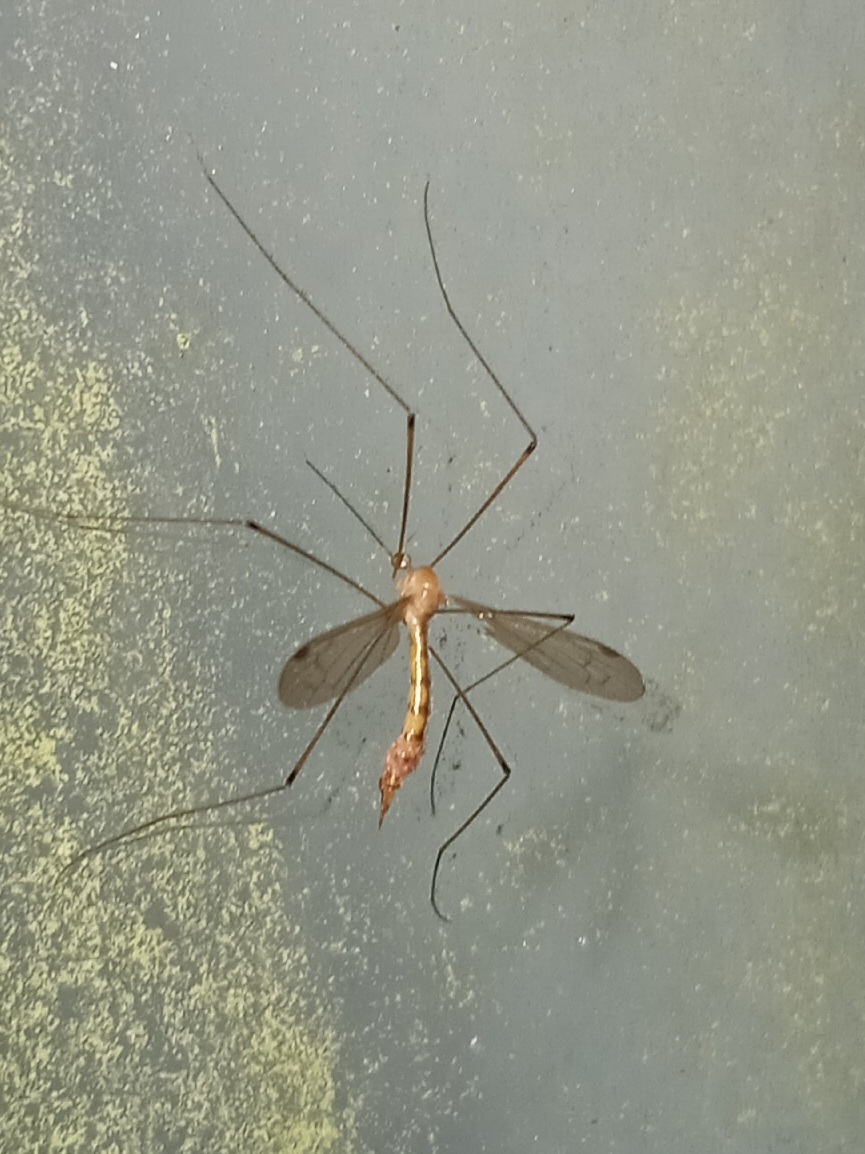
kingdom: Animalia
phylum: Arthropoda
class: Insecta
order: Diptera
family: Limoniidae
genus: Elephantomyia
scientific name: Elephantomyia westwoodi
